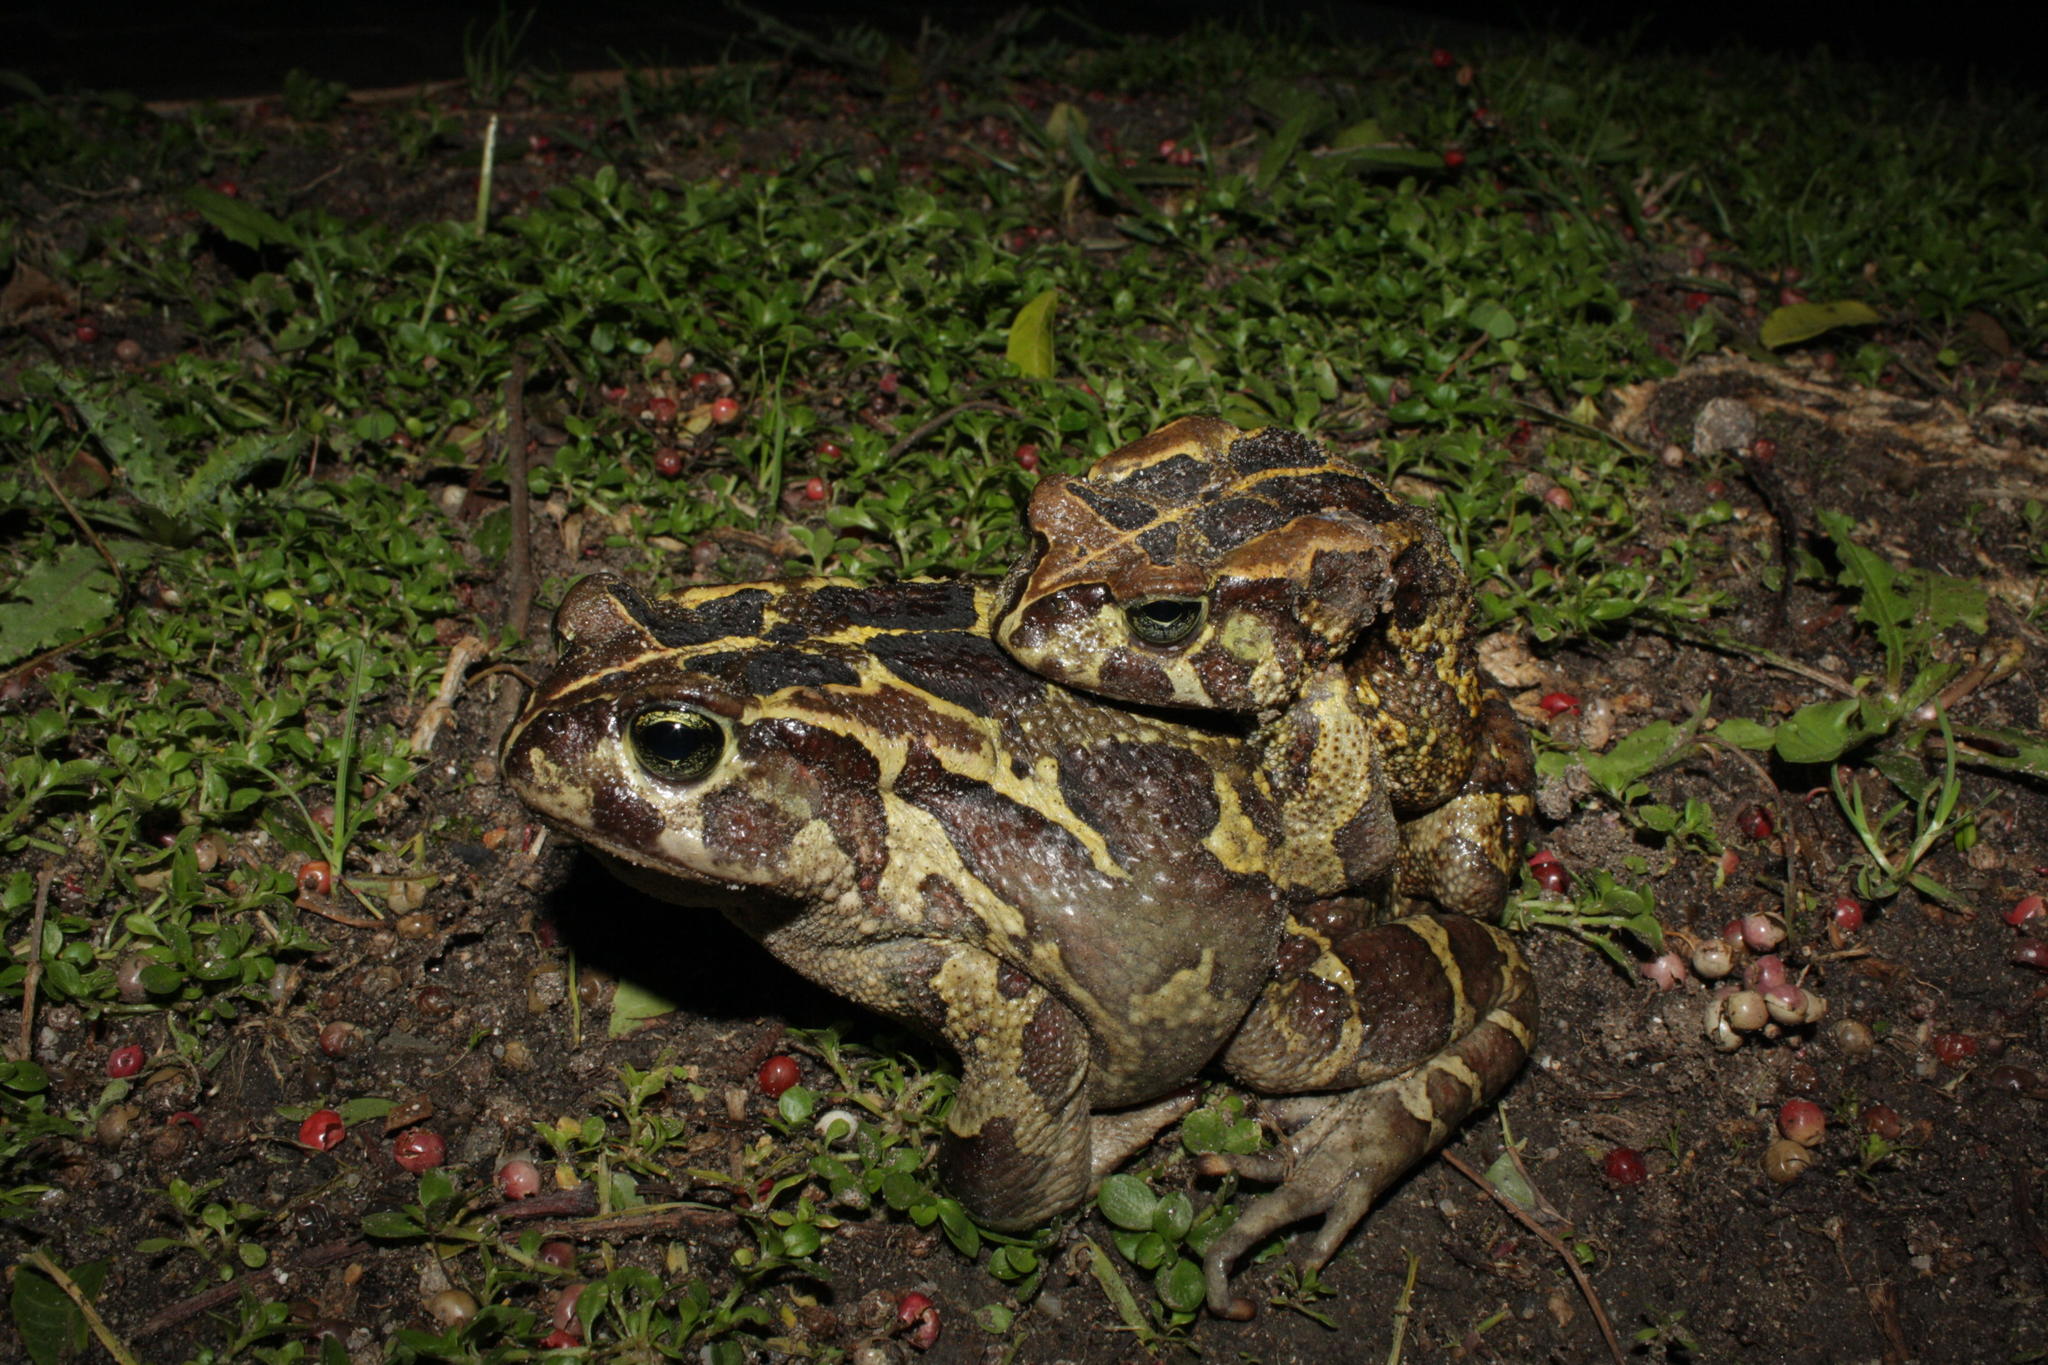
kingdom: Animalia
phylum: Chordata
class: Amphibia
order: Anura
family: Bufonidae
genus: Sclerophrys
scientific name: Sclerophrys pantherina
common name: Panther toad
